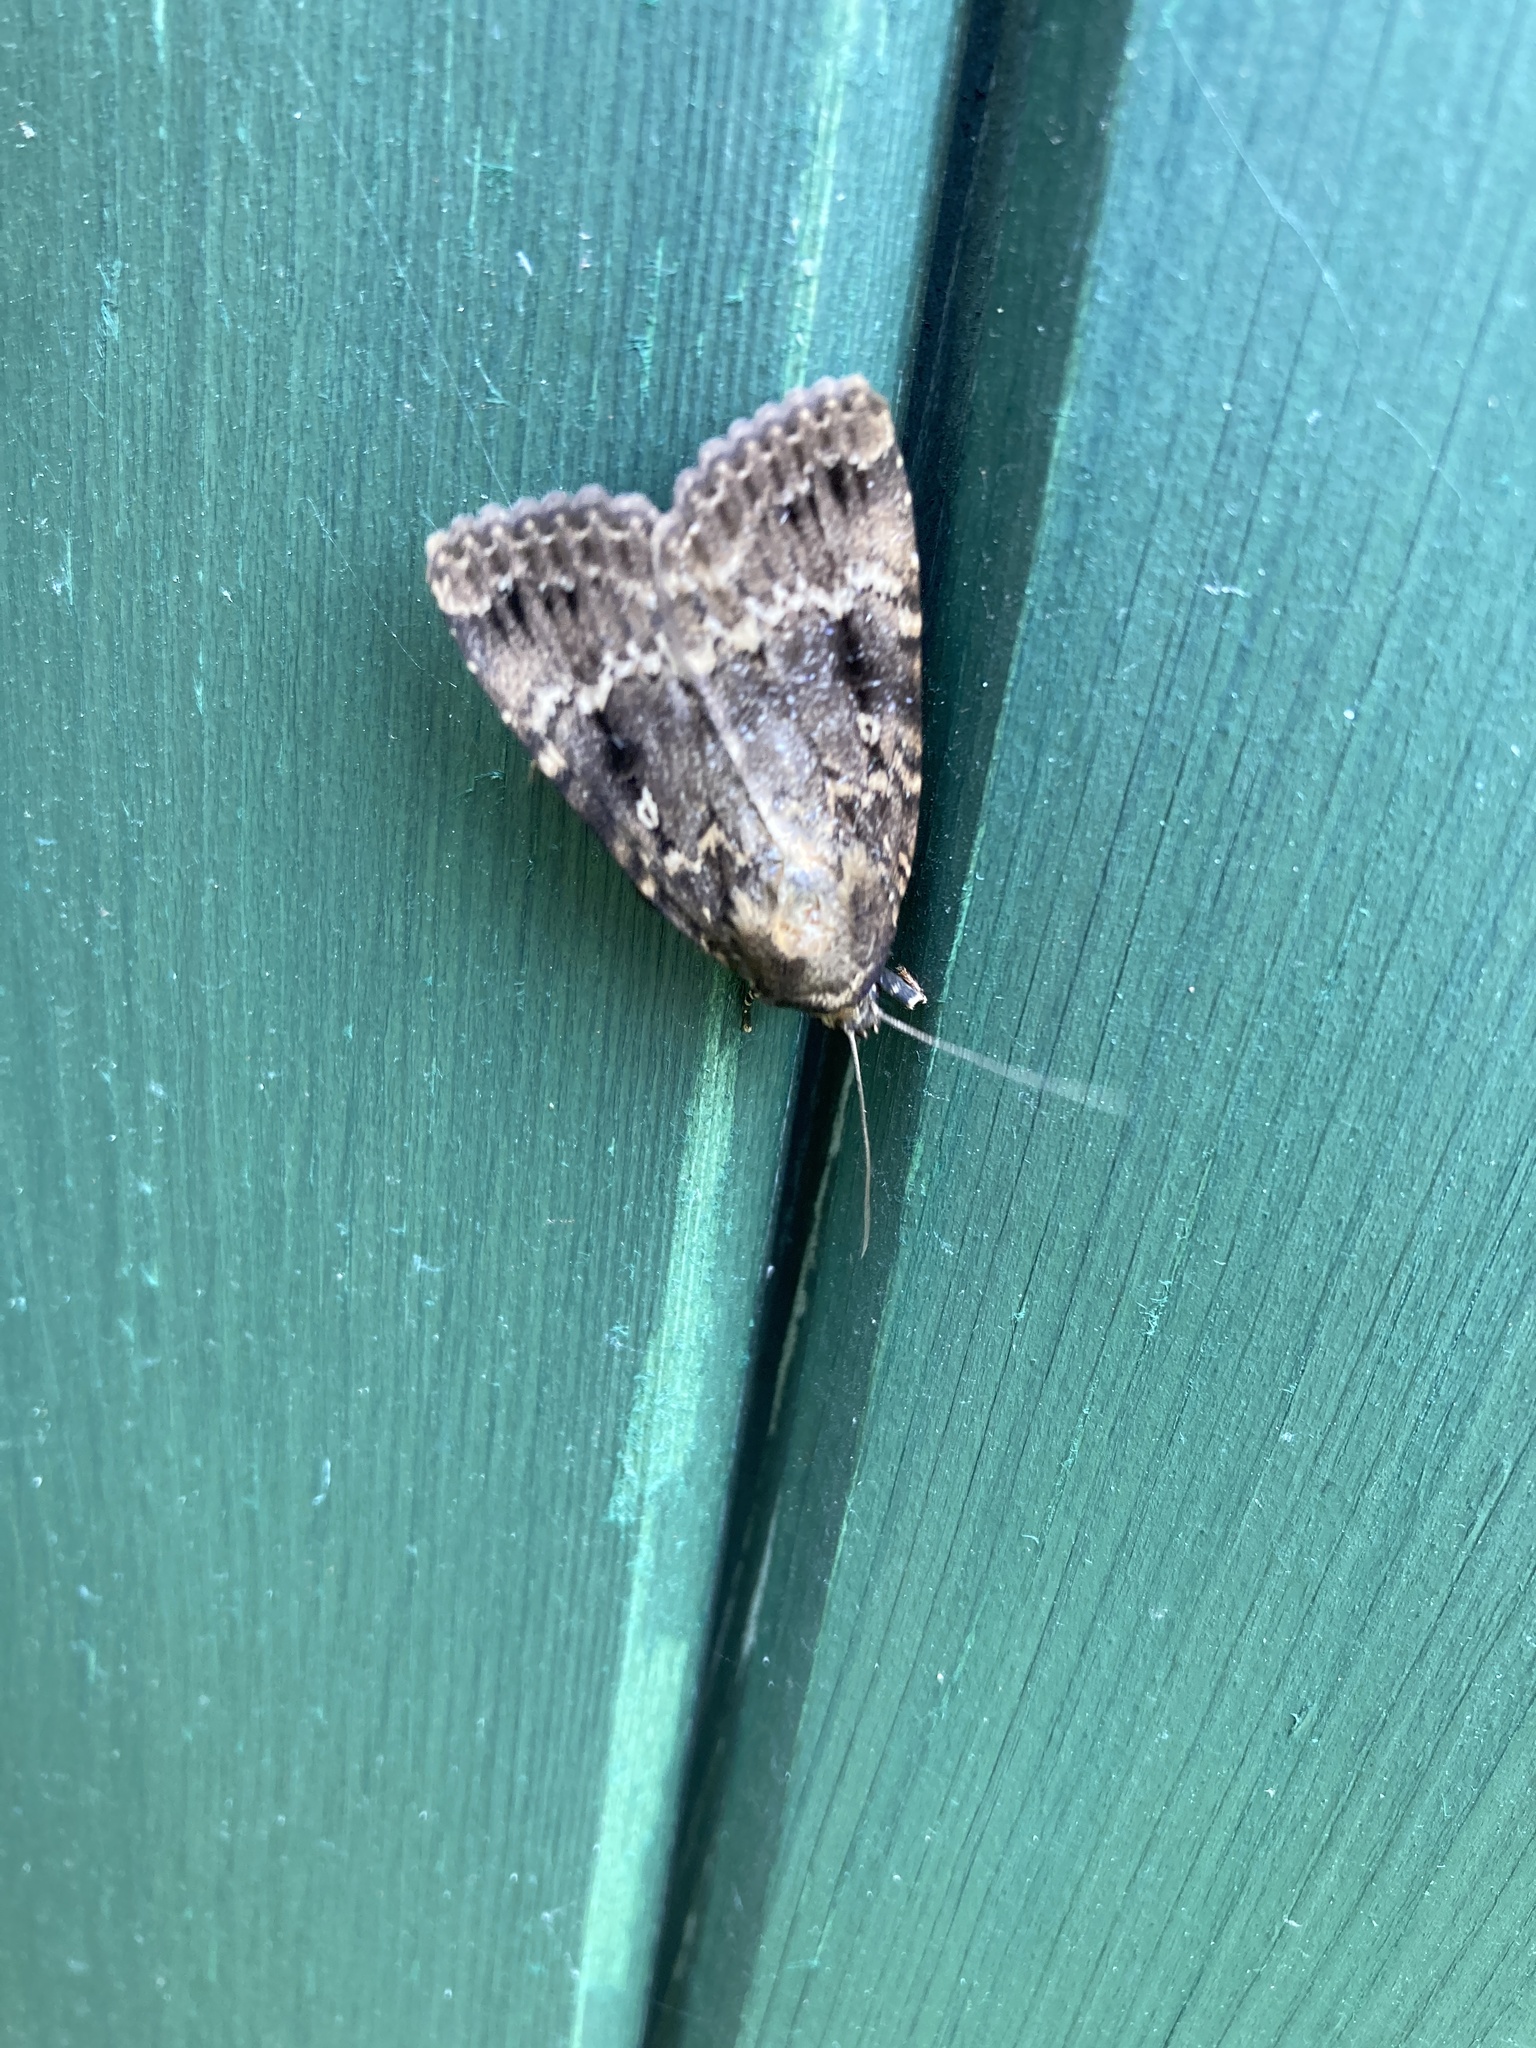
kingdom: Animalia
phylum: Arthropoda
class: Insecta
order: Lepidoptera
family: Noctuidae
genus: Amphipyra
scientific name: Amphipyra pyramidea
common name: Copper underwing
